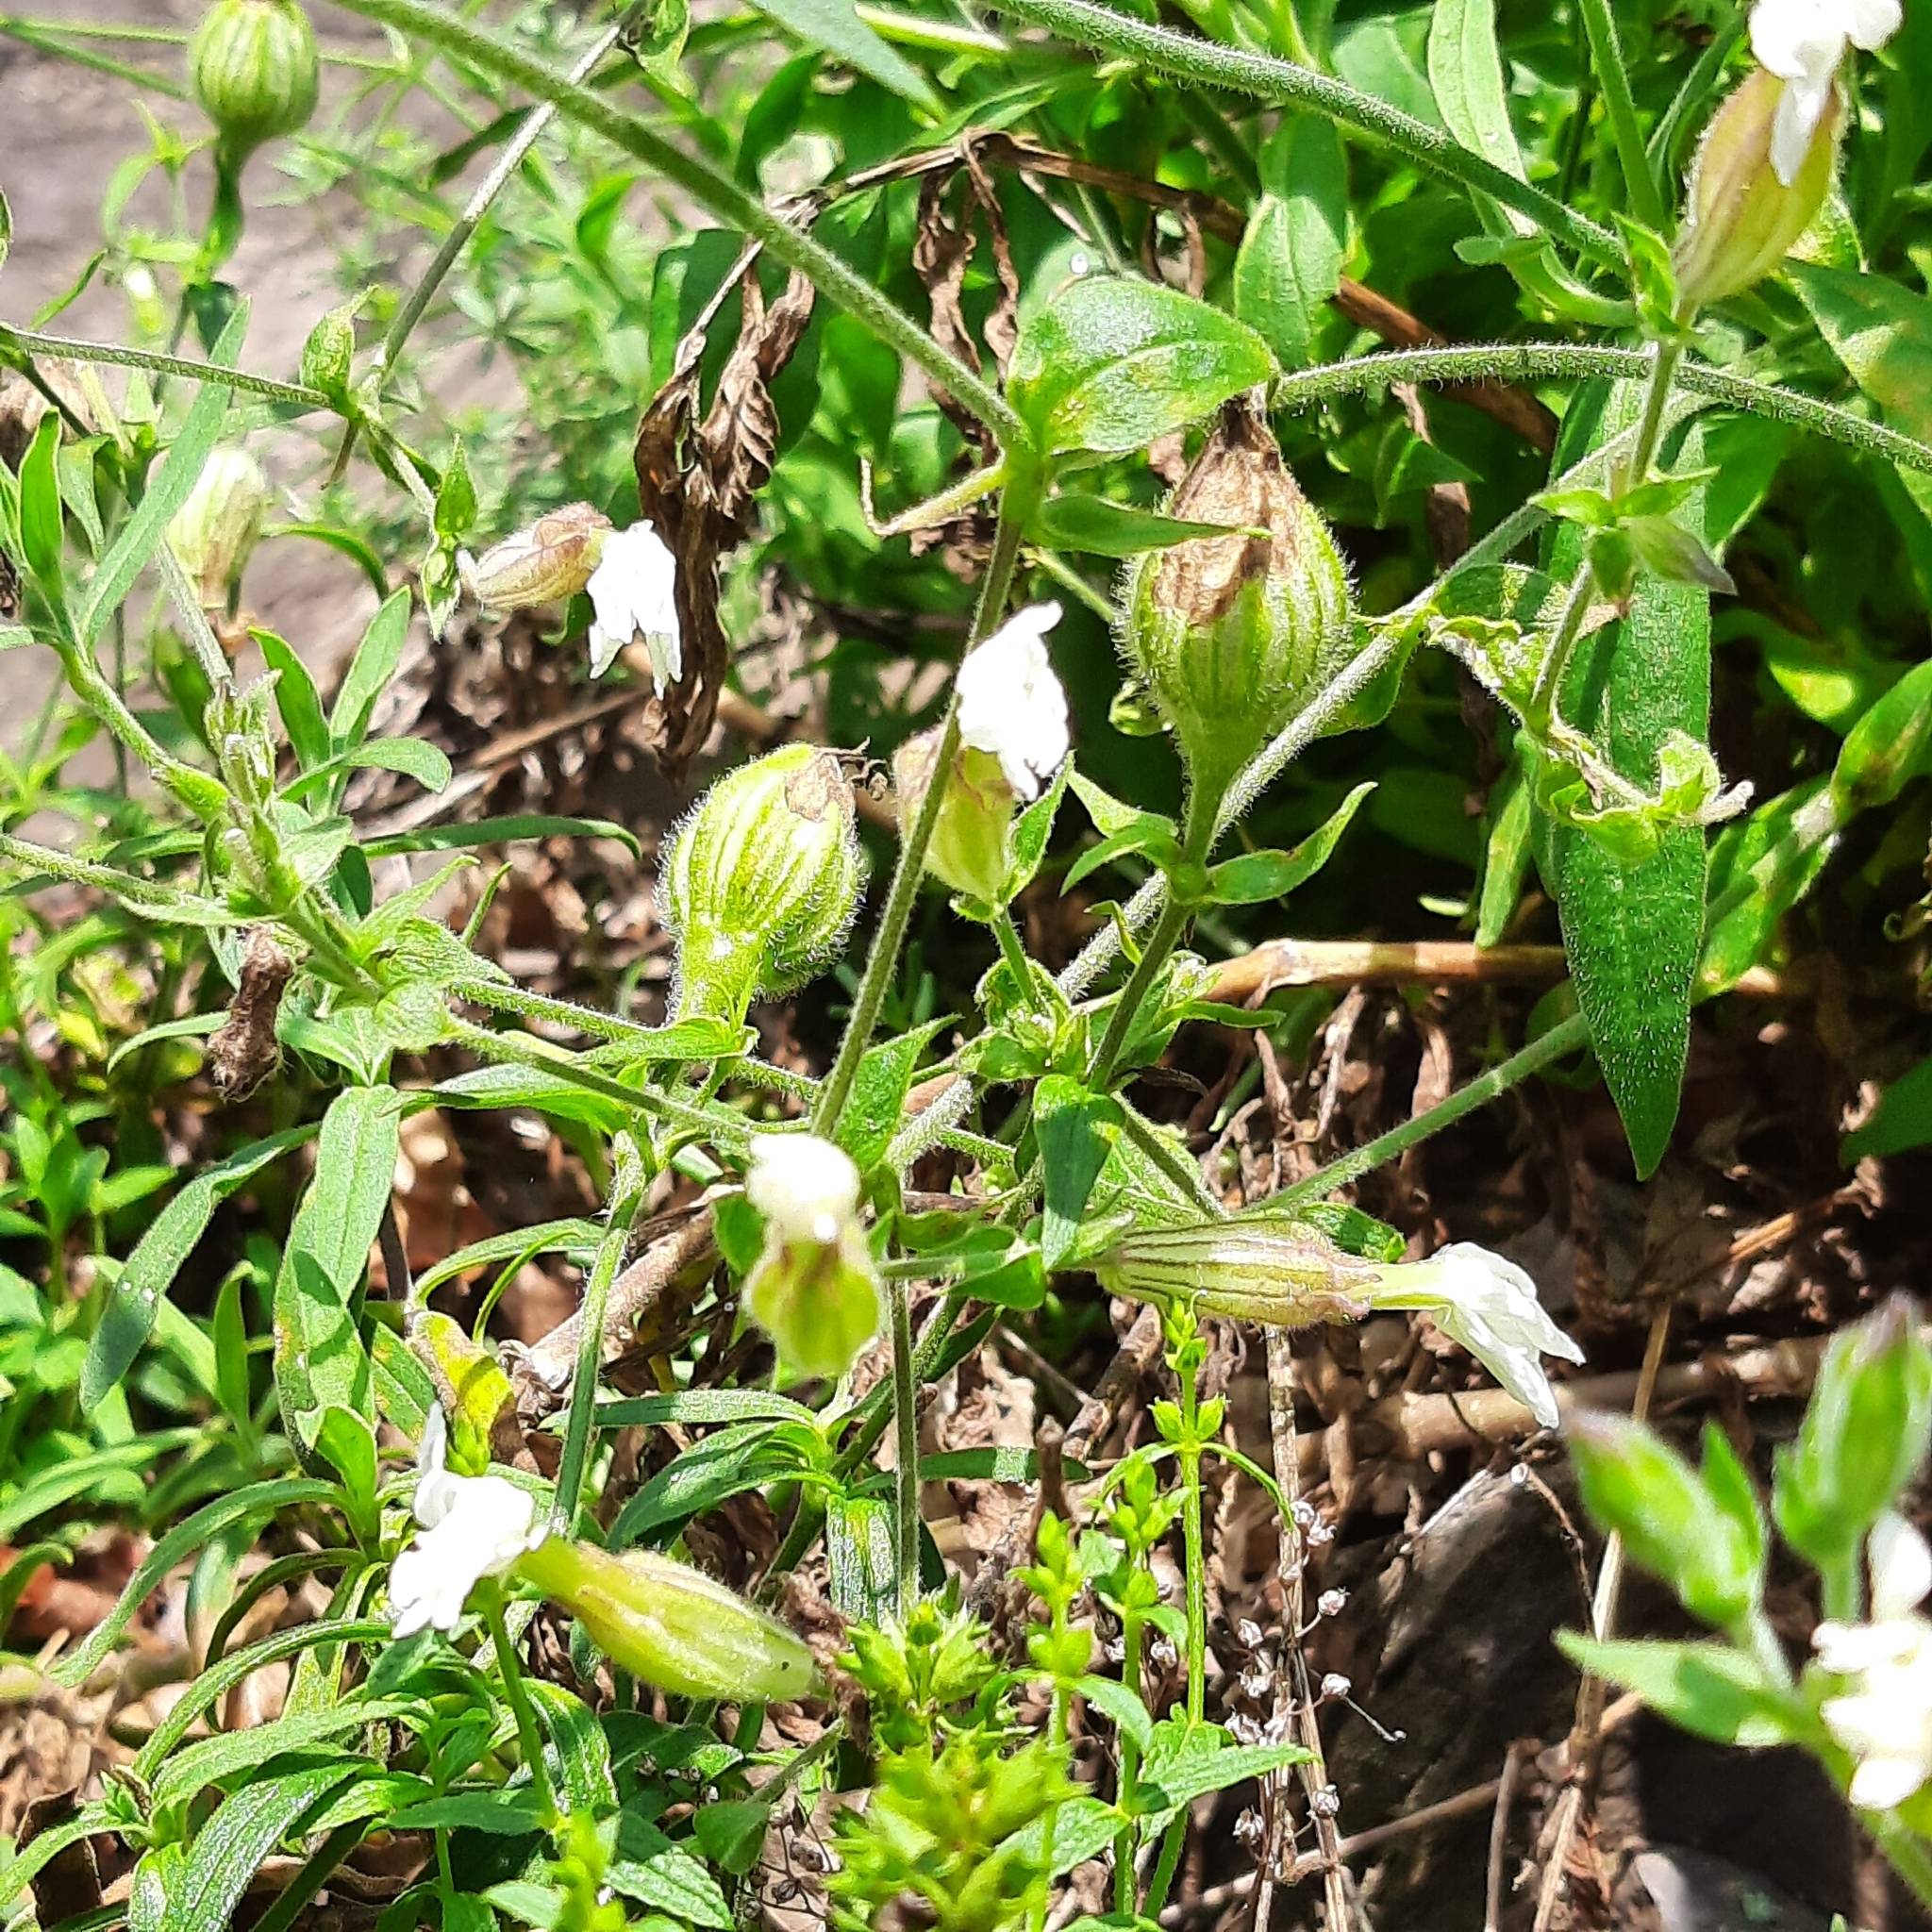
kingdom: Plantae
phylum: Tracheophyta
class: Magnoliopsida
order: Caryophyllales
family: Caryophyllaceae
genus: Silene
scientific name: Silene latifolia
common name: White campion
